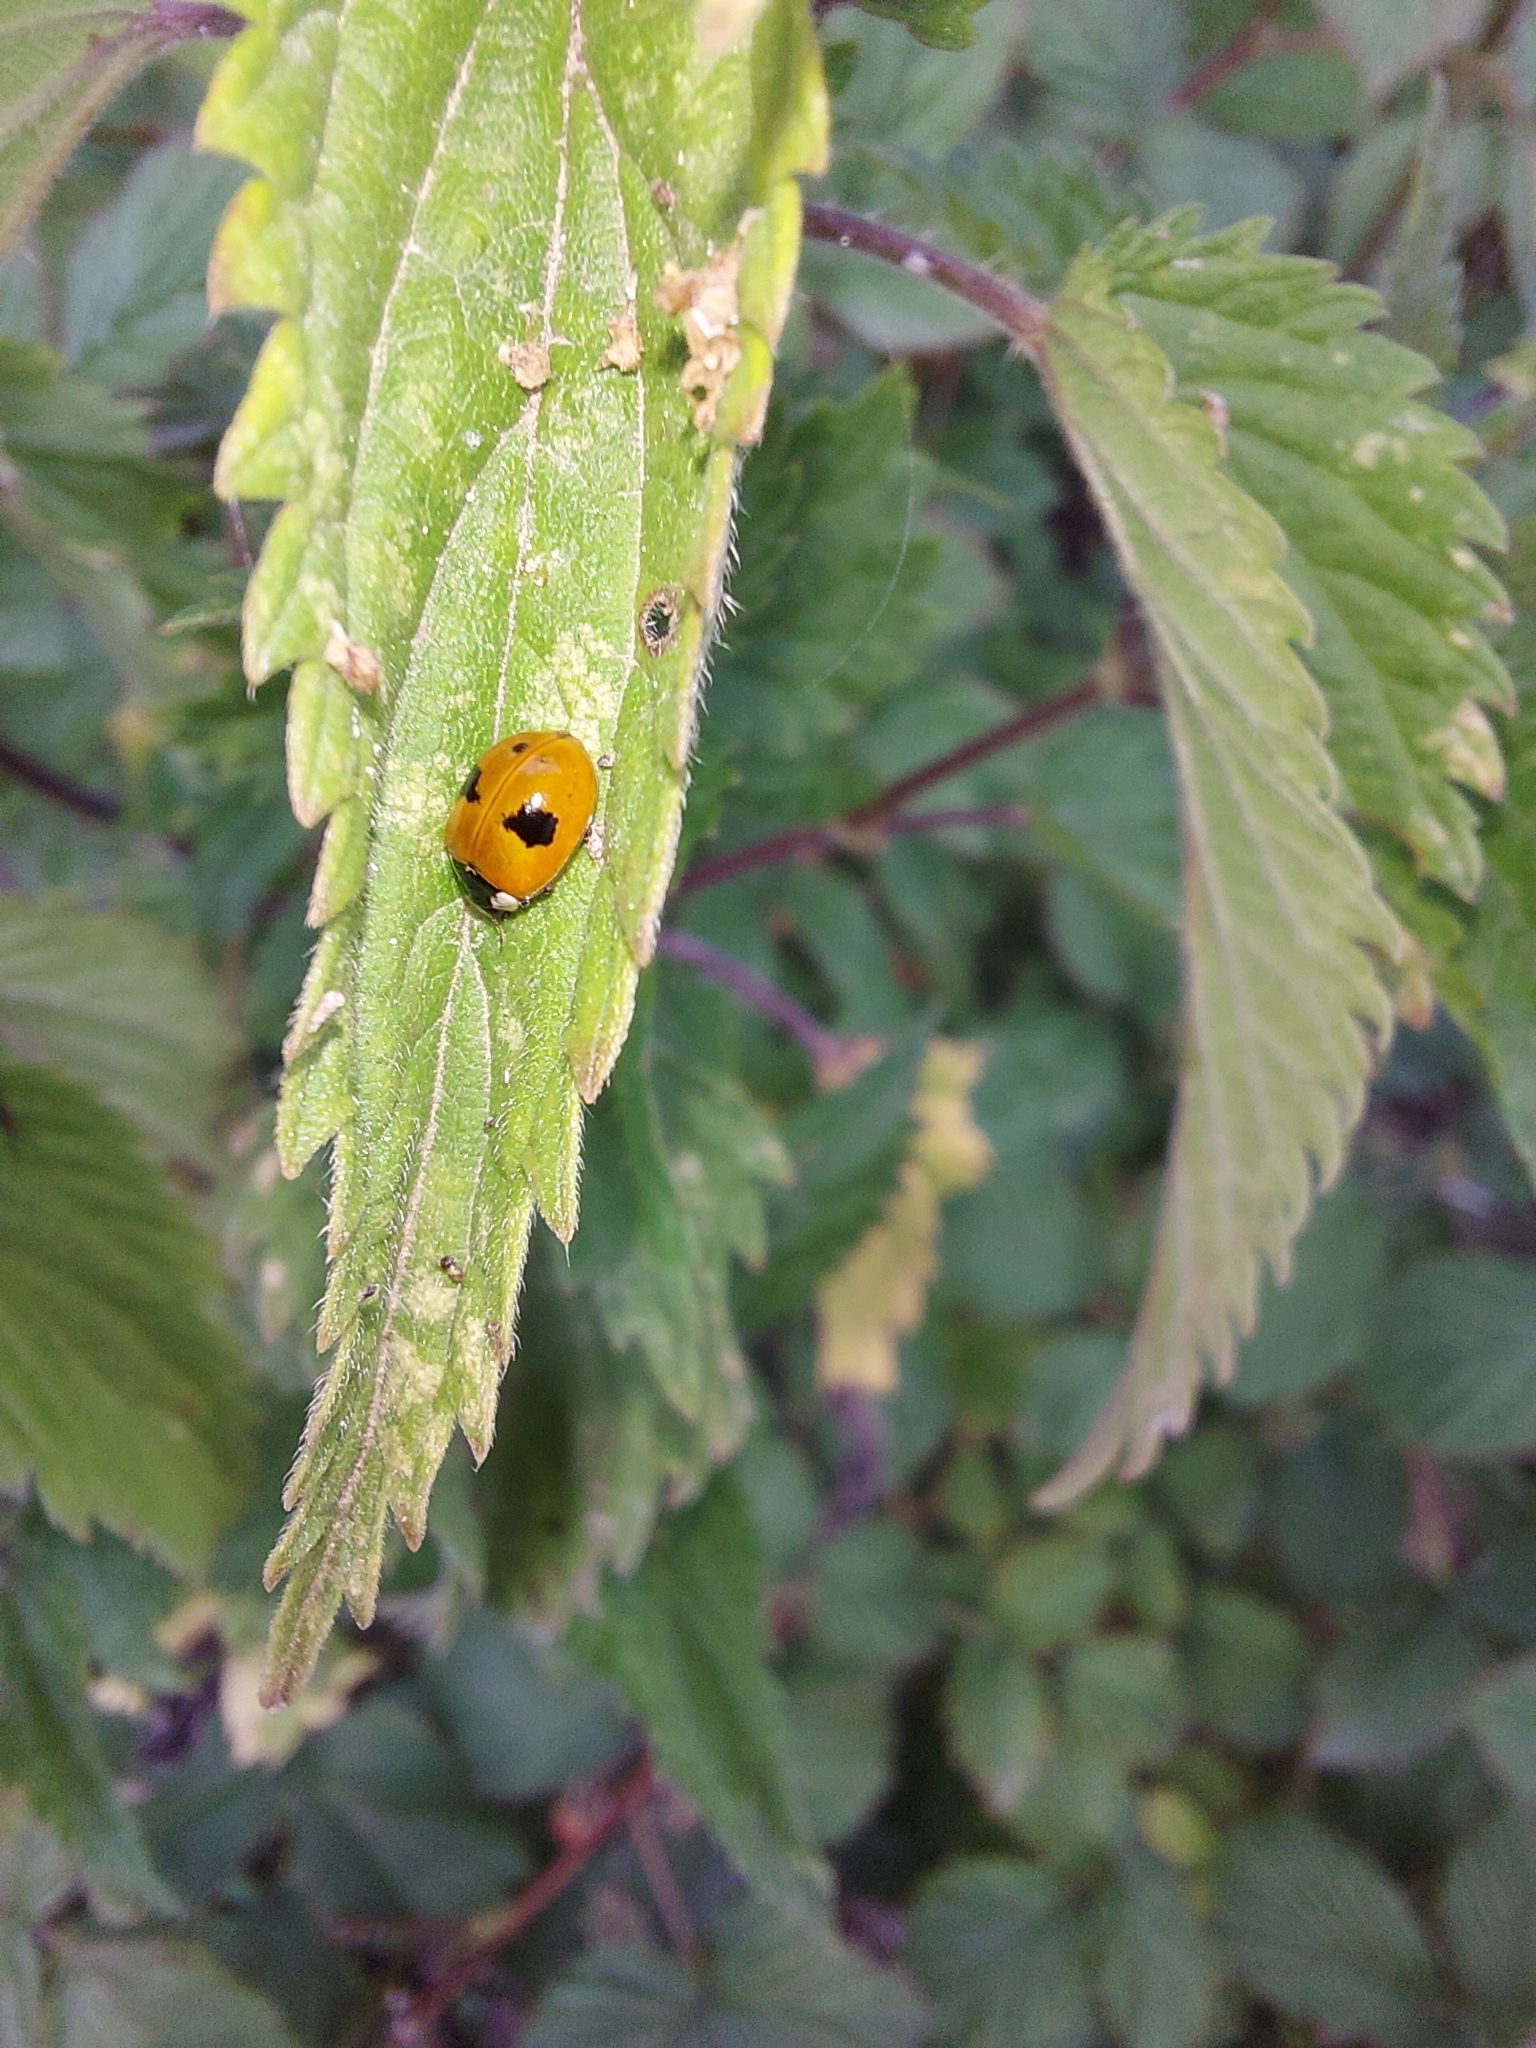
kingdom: Animalia
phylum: Arthropoda
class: Insecta
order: Coleoptera
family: Coccinellidae
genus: Adalia
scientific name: Adalia bipunctata
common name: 2-spot ladybird
